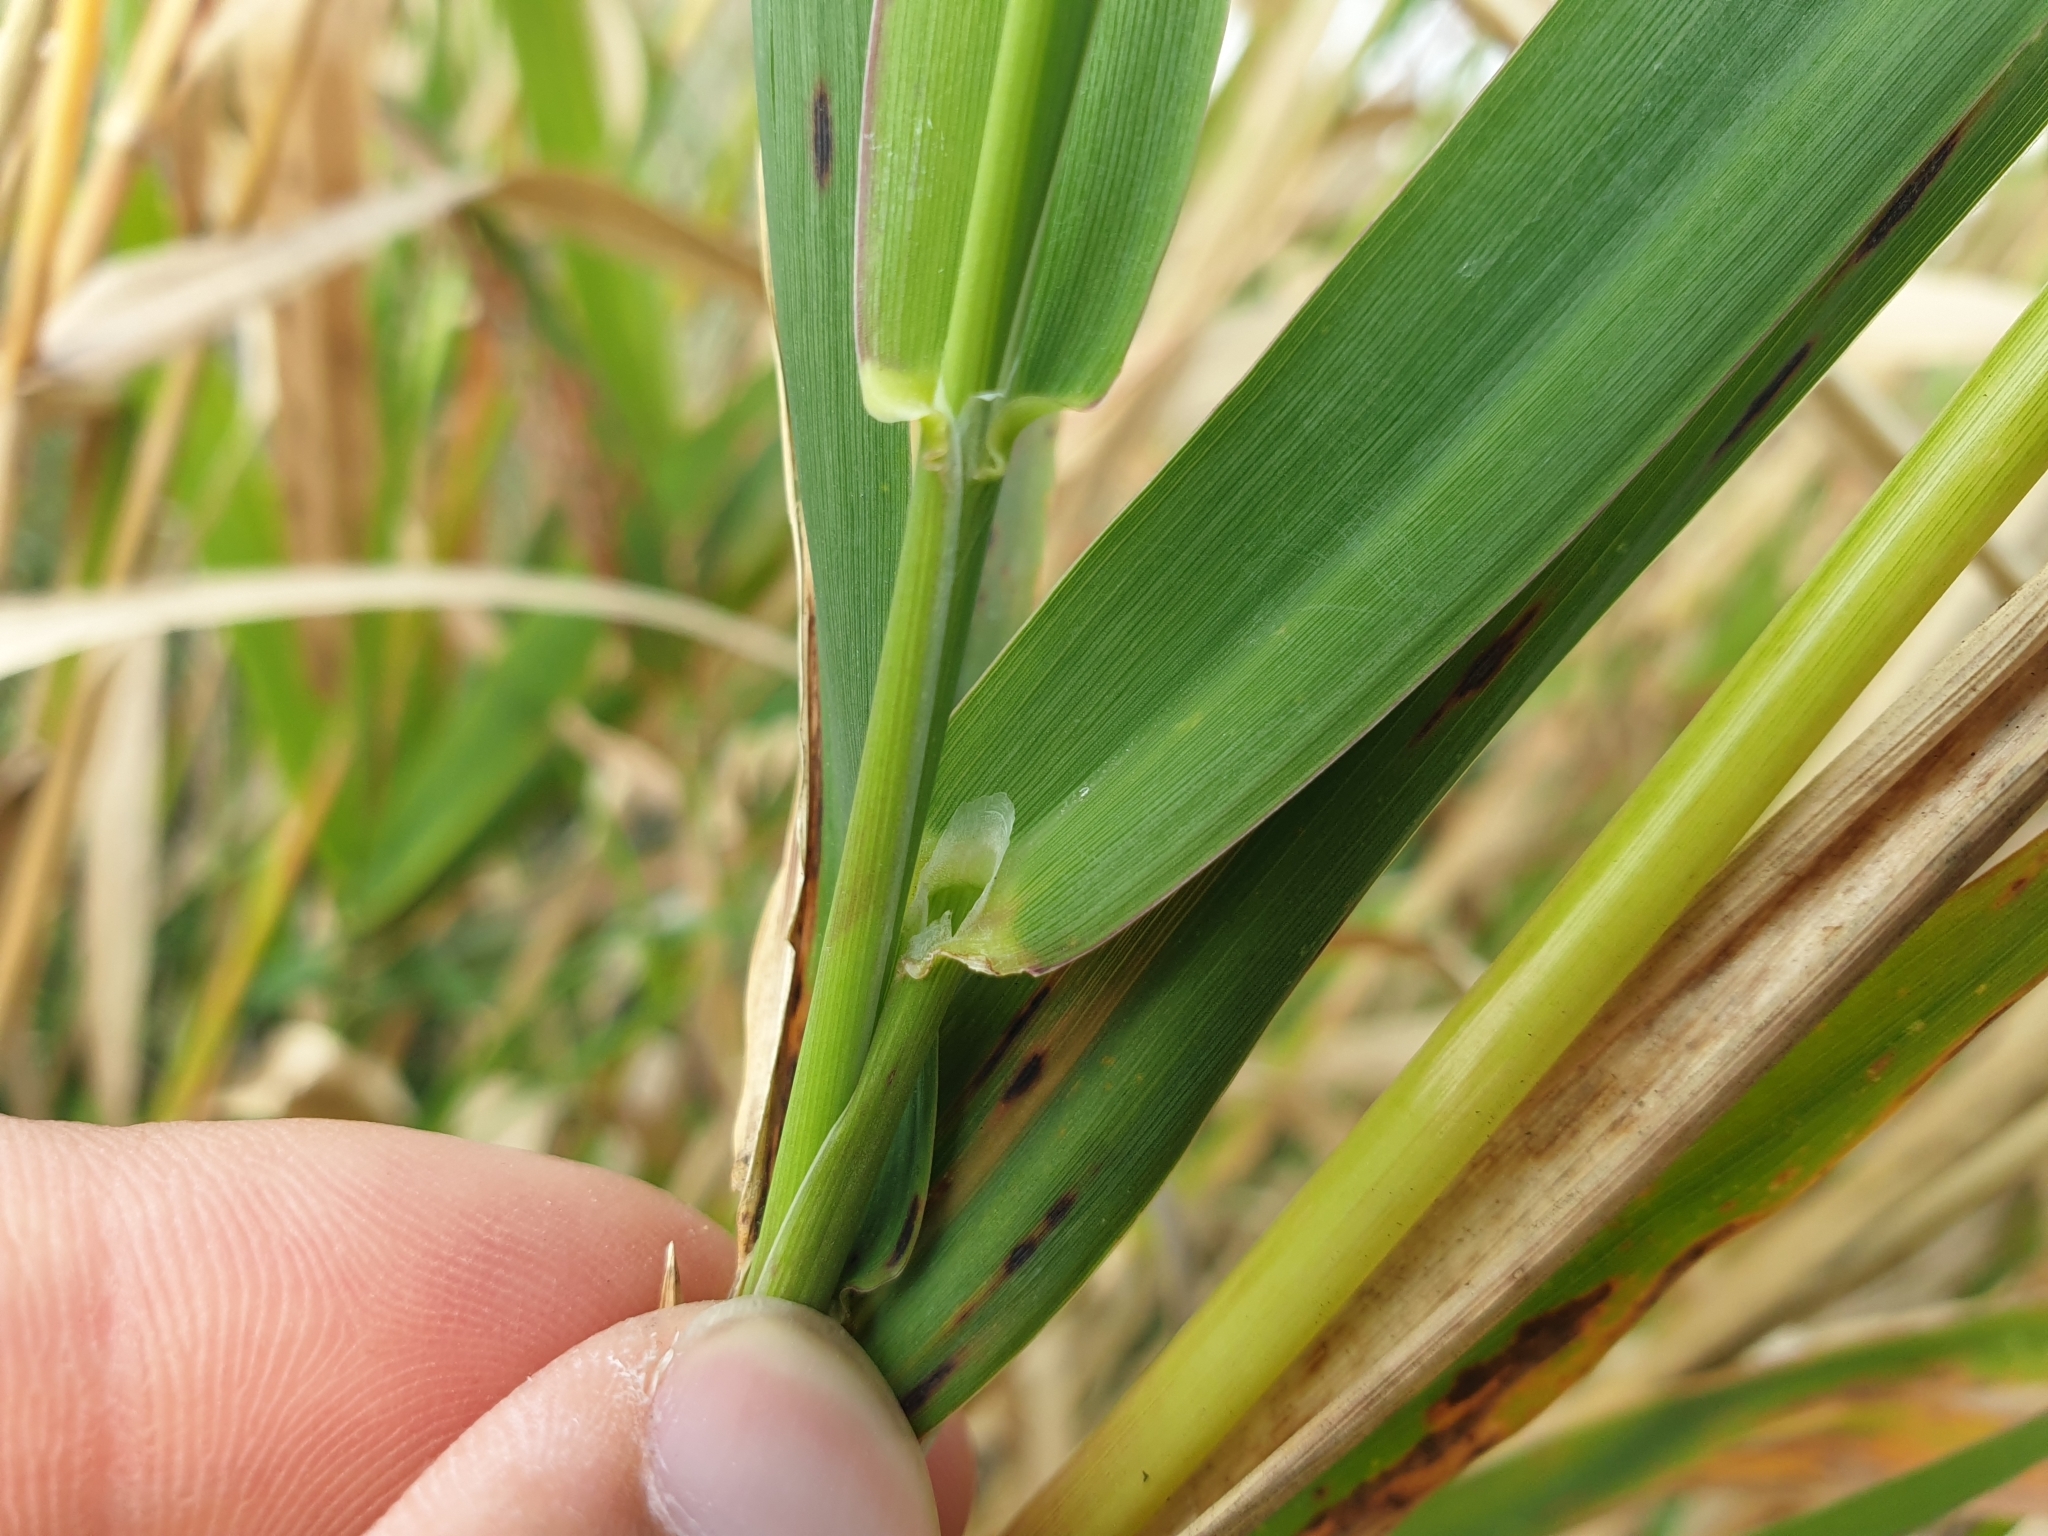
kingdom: Plantae
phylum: Tracheophyta
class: Liliopsida
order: Poales
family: Poaceae
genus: Phalaris
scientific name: Phalaris arundinacea
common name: Reed canary-grass
